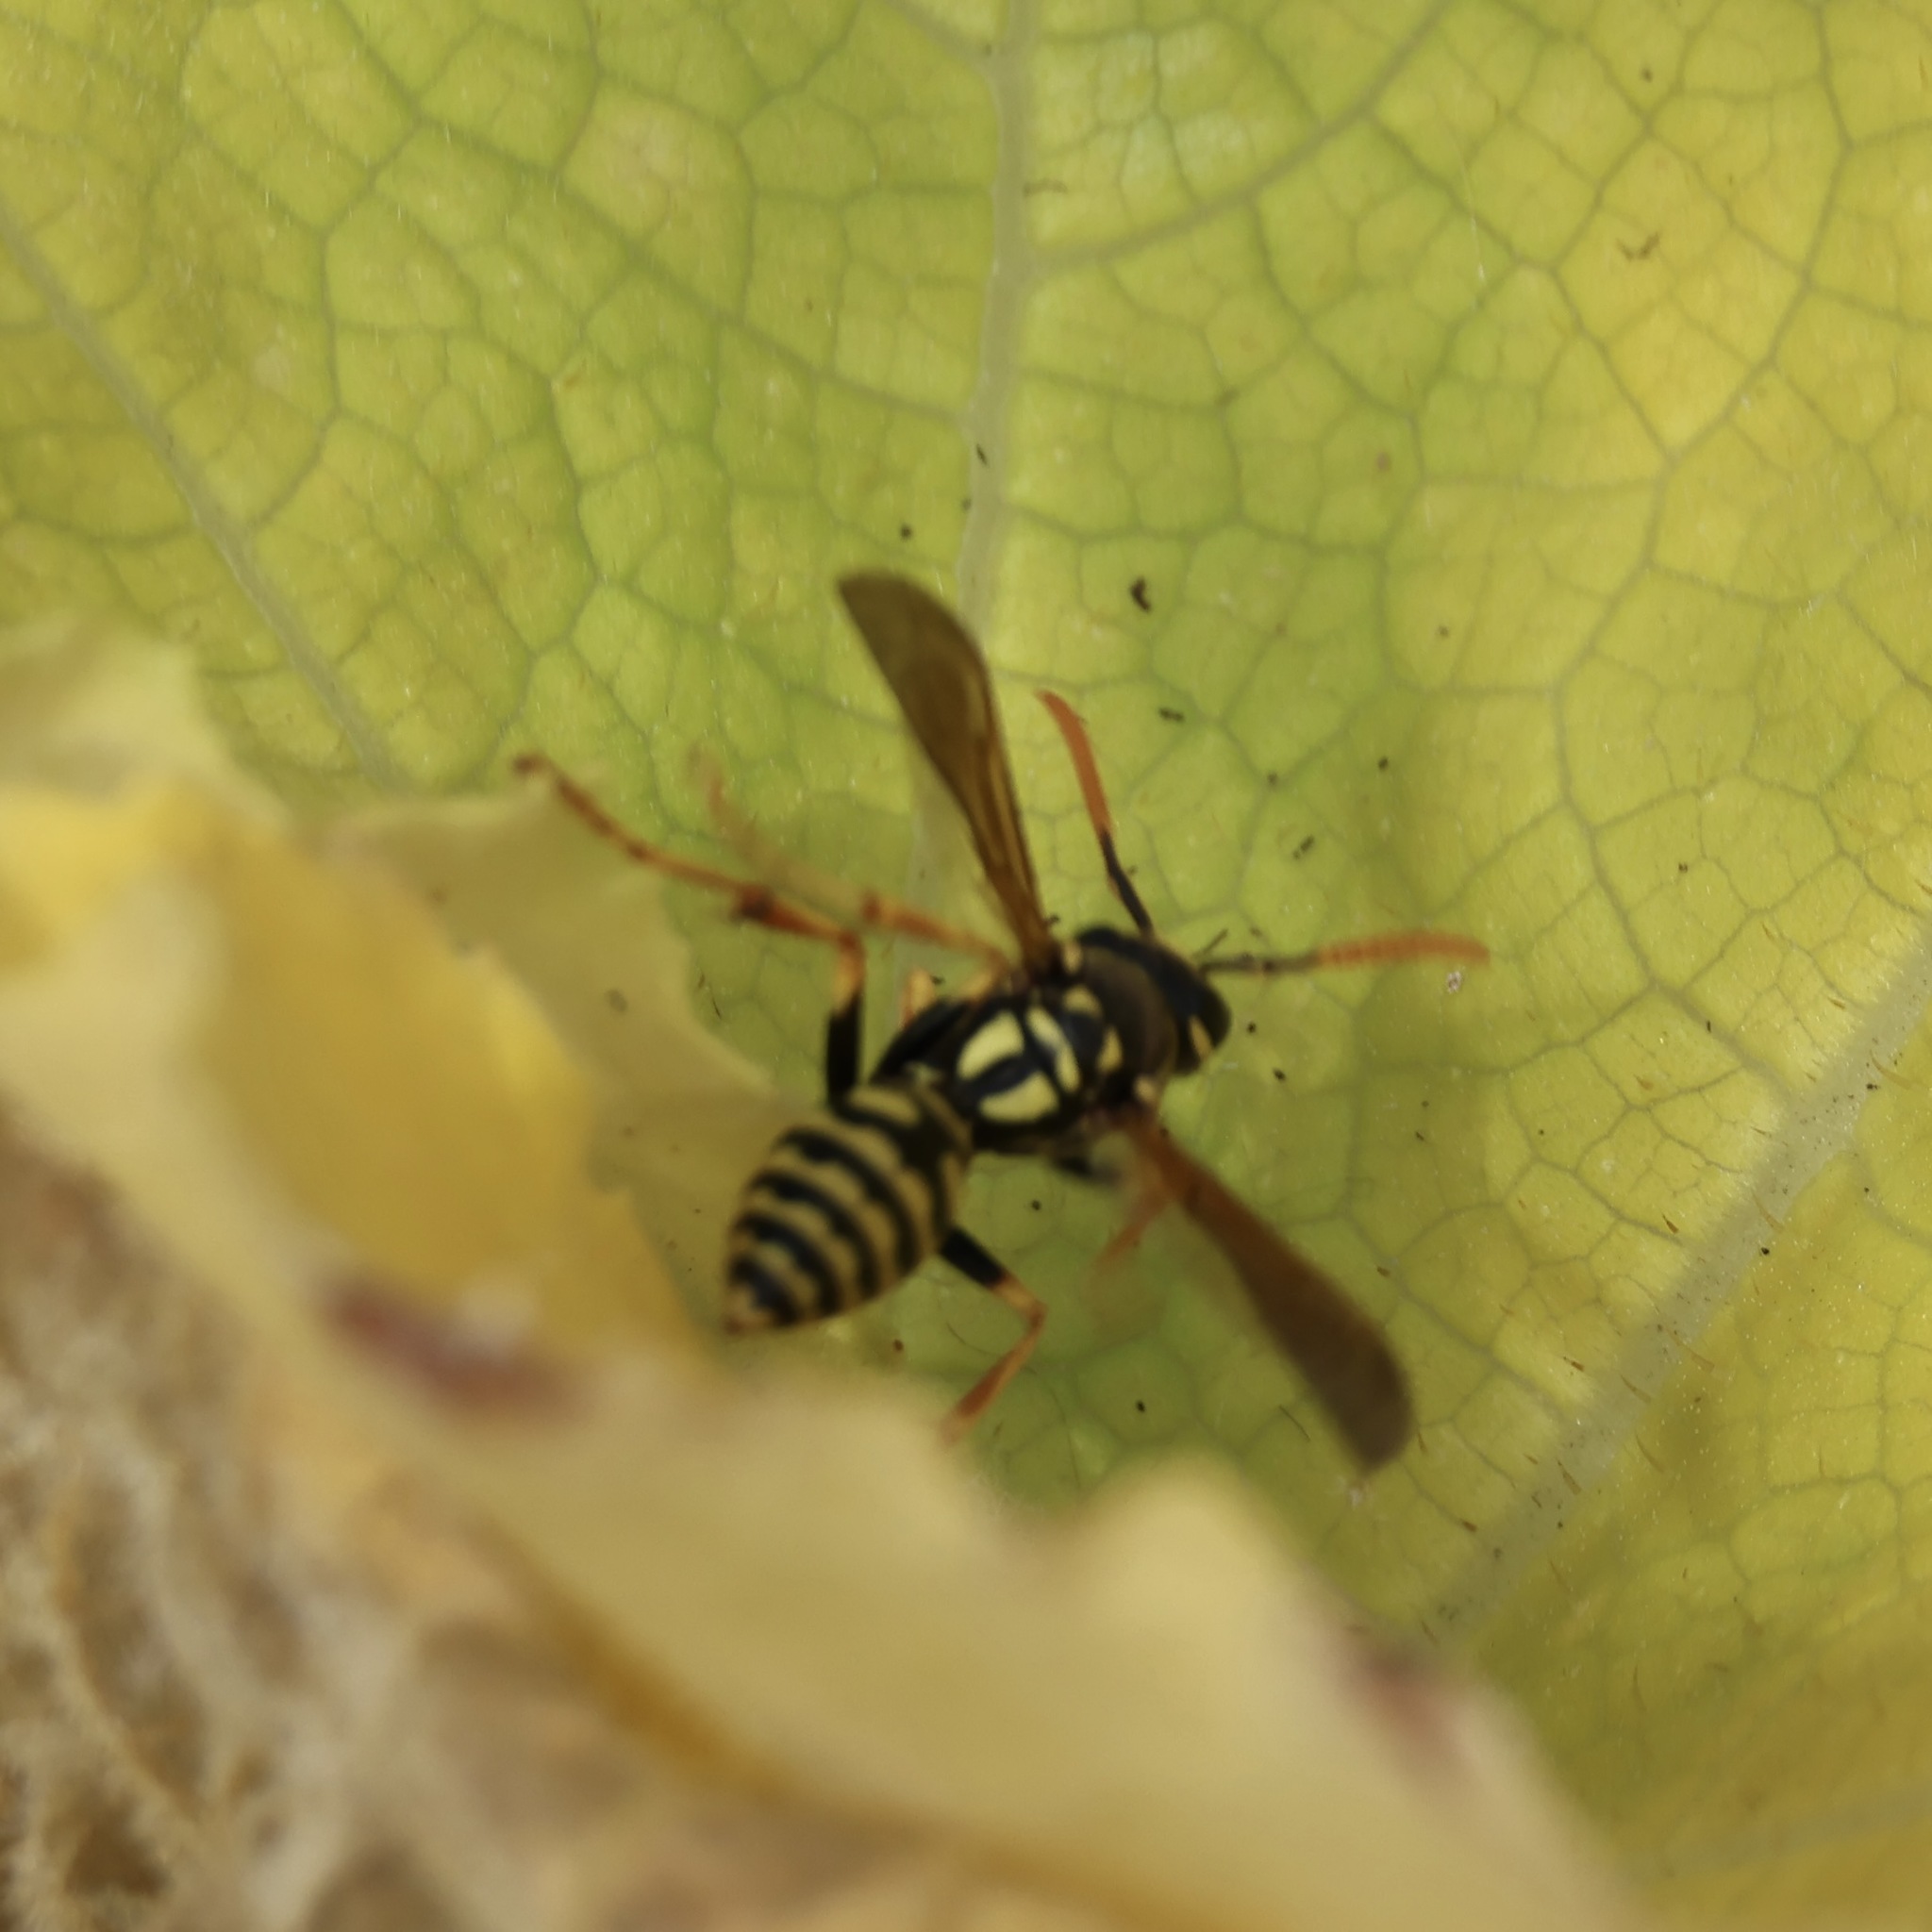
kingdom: Animalia
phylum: Arthropoda
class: Insecta
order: Hymenoptera
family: Eumenidae
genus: Polistes
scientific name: Polistes dominula
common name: Paper wasp
